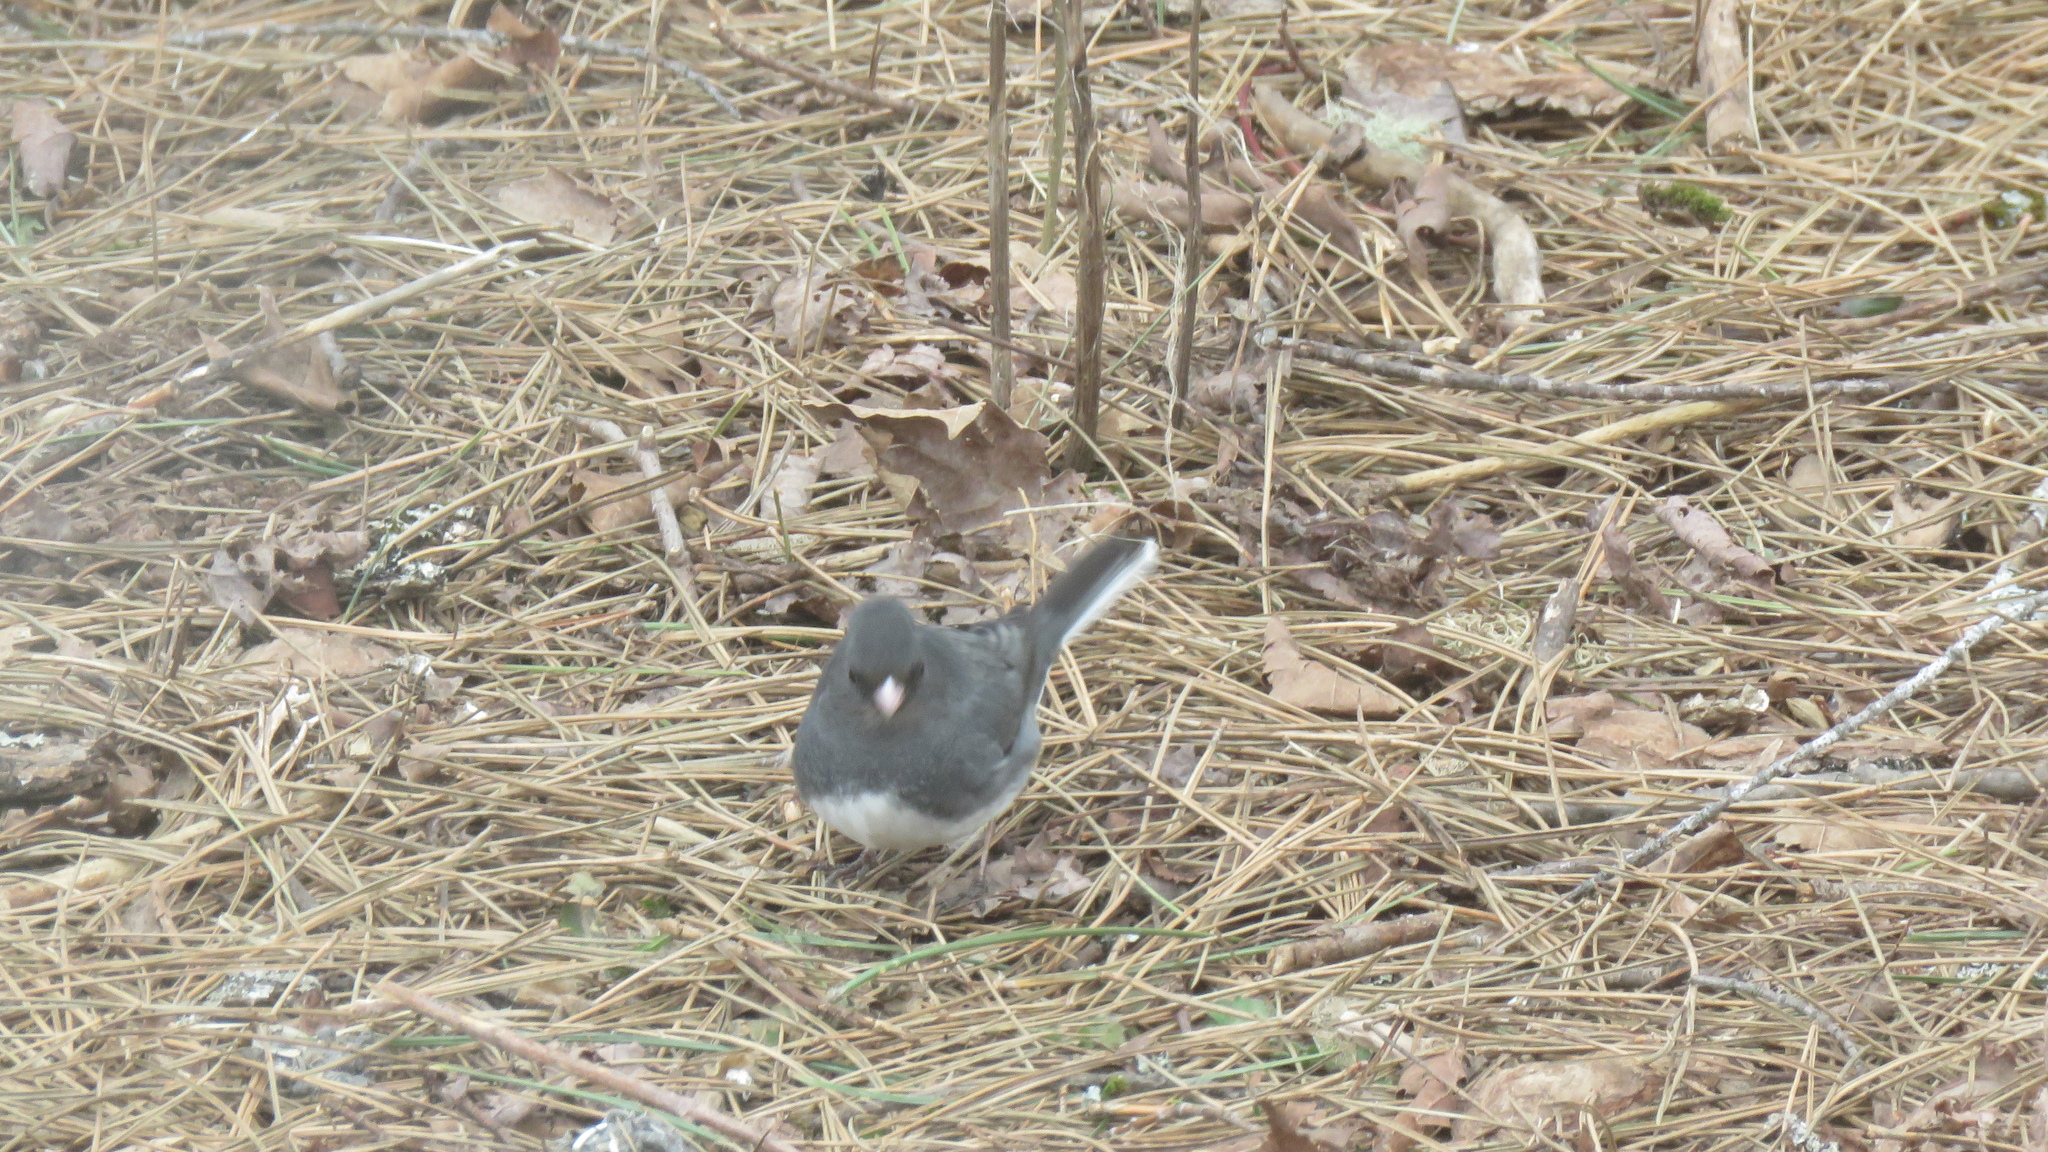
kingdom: Animalia
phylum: Chordata
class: Aves
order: Passeriformes
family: Passerellidae
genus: Junco
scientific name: Junco hyemalis
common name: Dark-eyed junco
